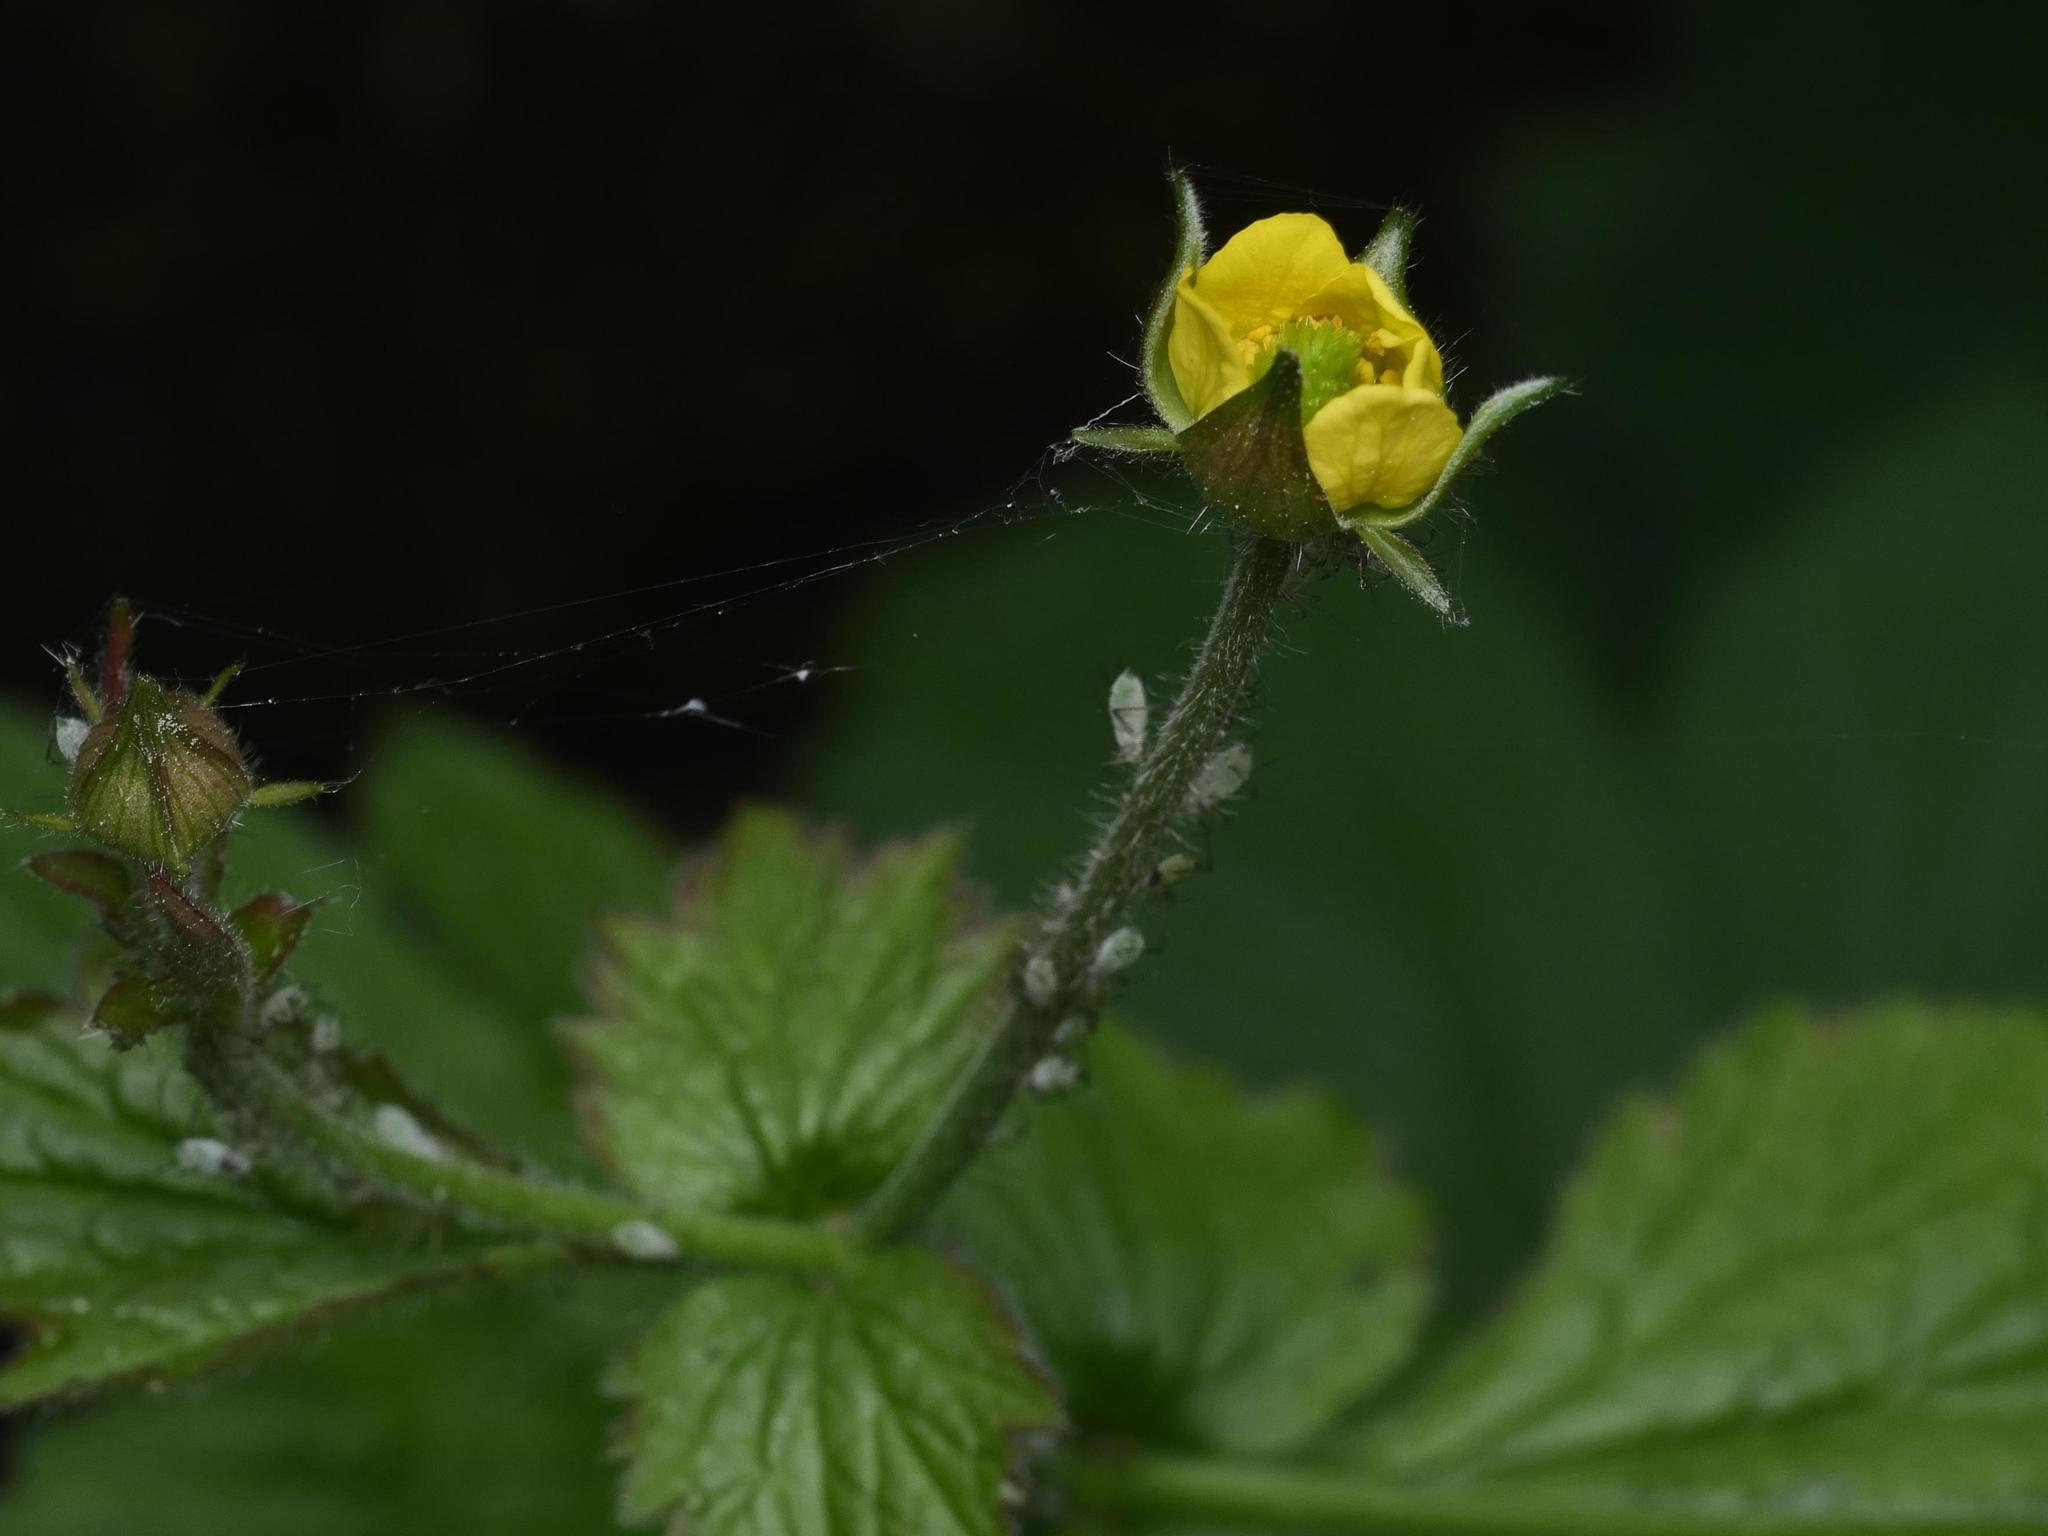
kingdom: Plantae
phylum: Tracheophyta
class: Magnoliopsida
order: Rosales
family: Rosaceae
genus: Geum
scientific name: Geum urbanum
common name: Wood avens
